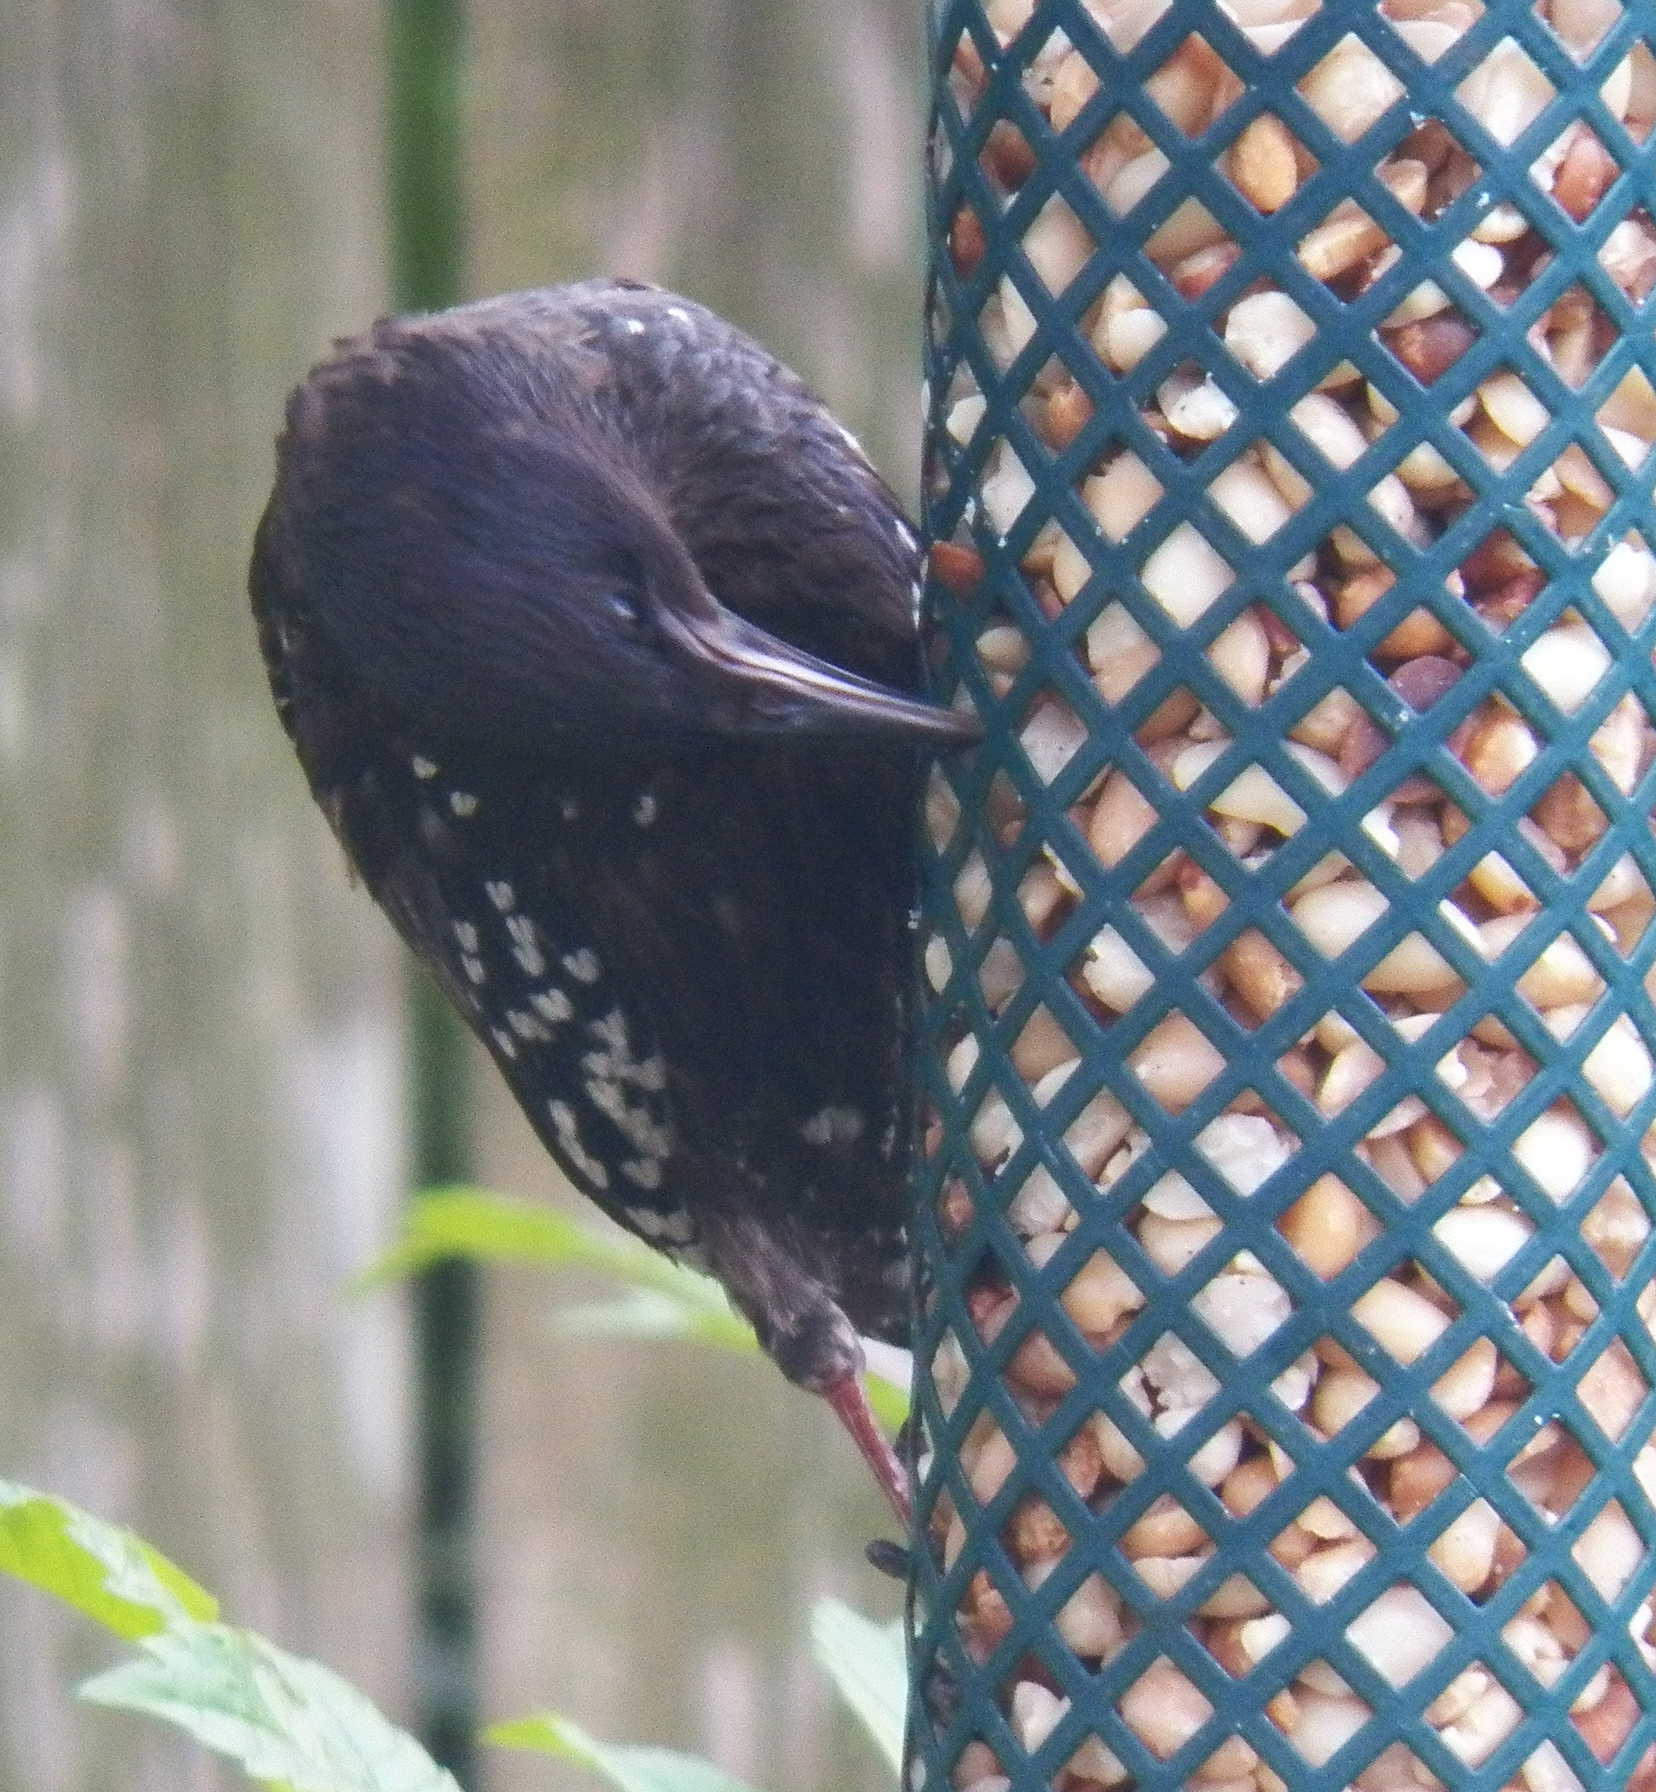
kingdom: Animalia
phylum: Chordata
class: Aves
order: Passeriformes
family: Sturnidae
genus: Sturnus
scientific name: Sturnus vulgaris
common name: Common starling
